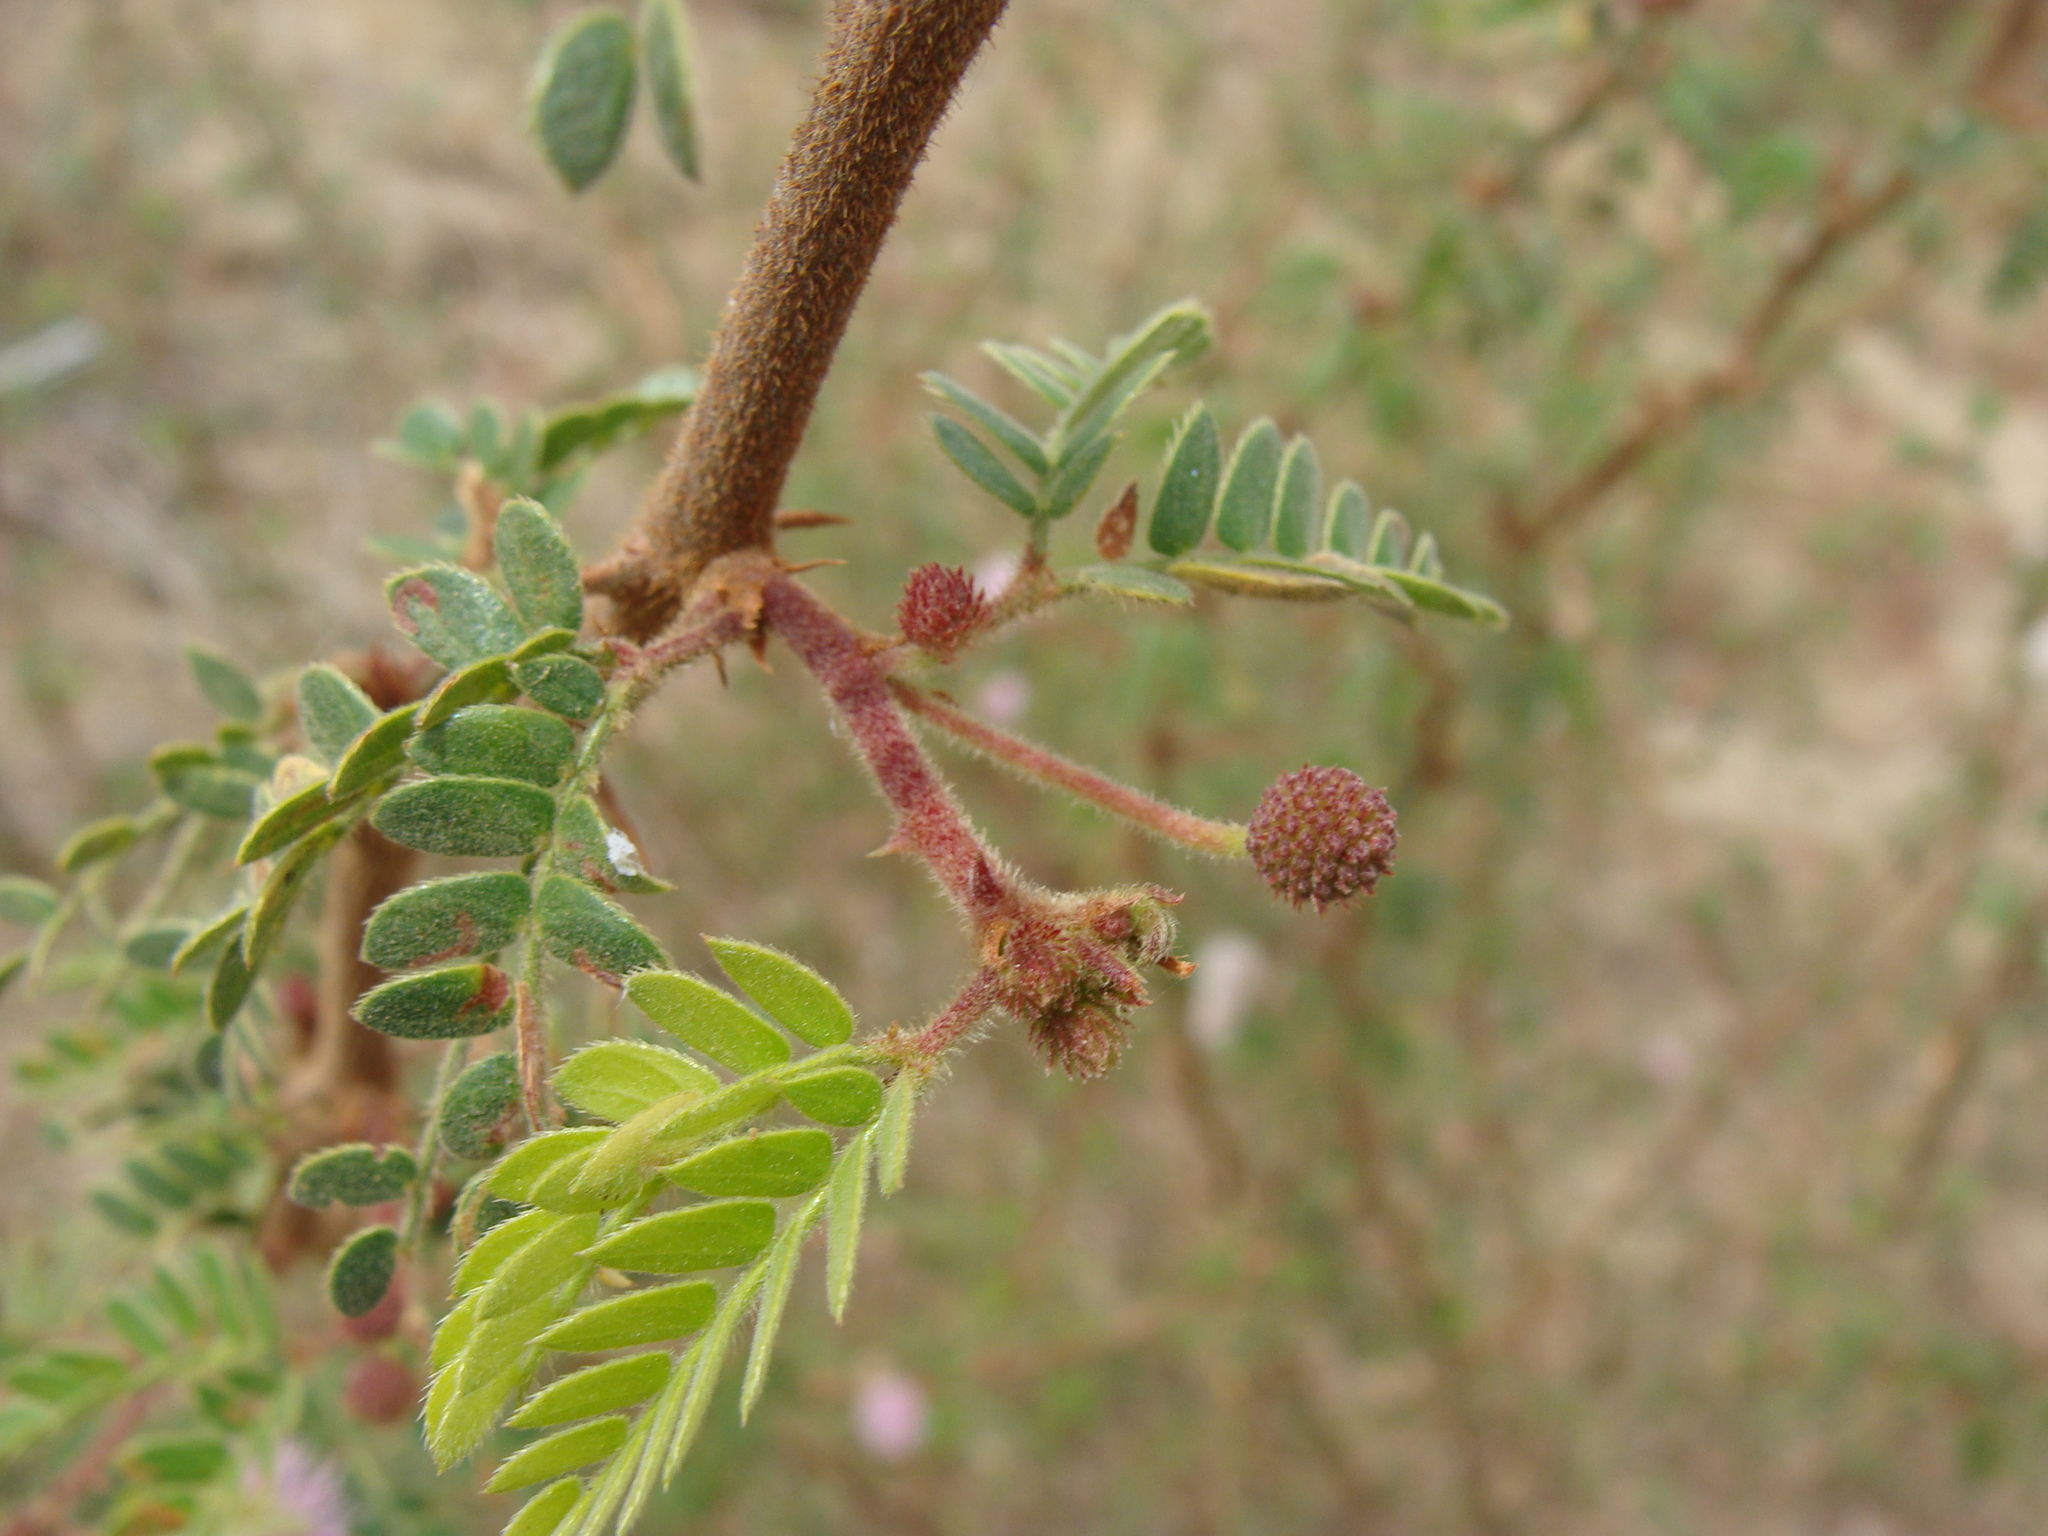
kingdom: Plantae
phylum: Tracheophyta
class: Magnoliopsida
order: Fabales
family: Fabaceae
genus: Mimosa
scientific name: Mimosa tricephala
